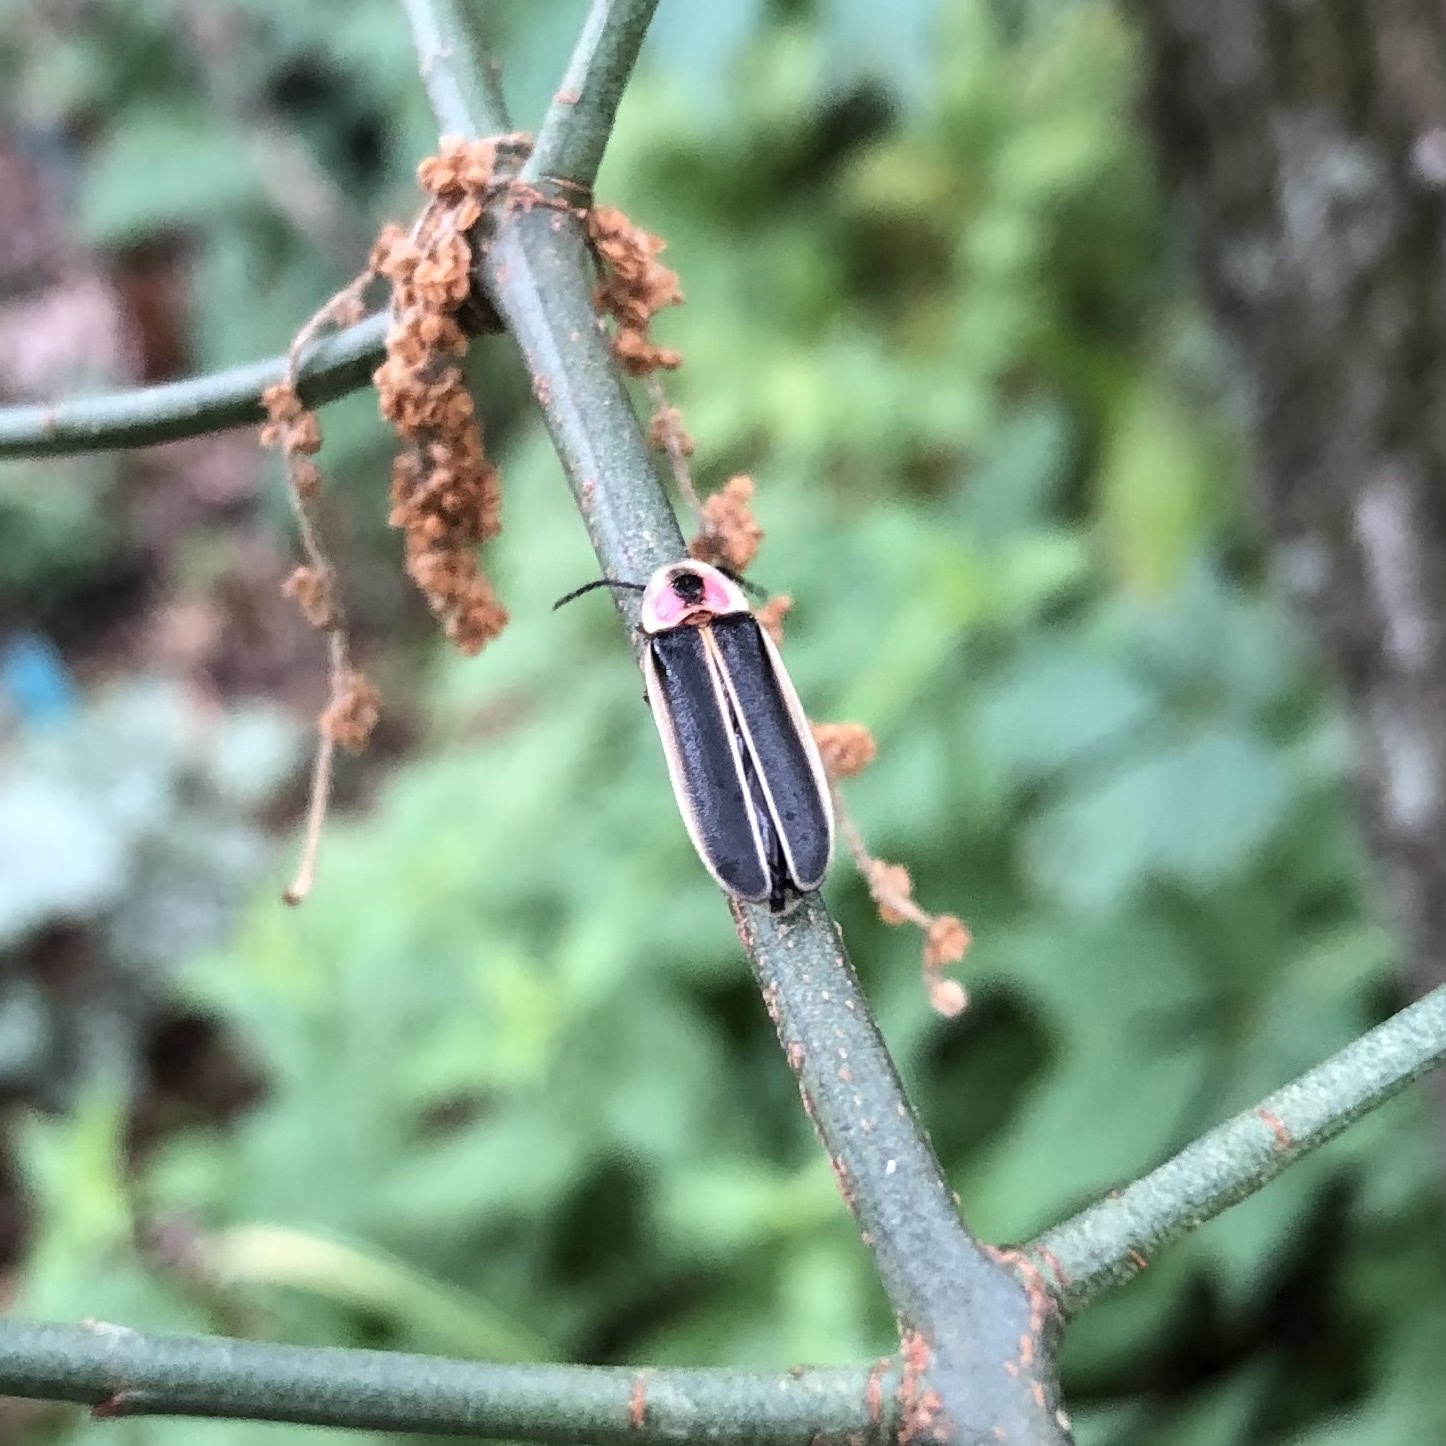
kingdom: Animalia
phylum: Arthropoda
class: Insecta
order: Coleoptera
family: Lampyridae
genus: Photinus
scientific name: Photinus pyralis
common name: Big dipper firefly
